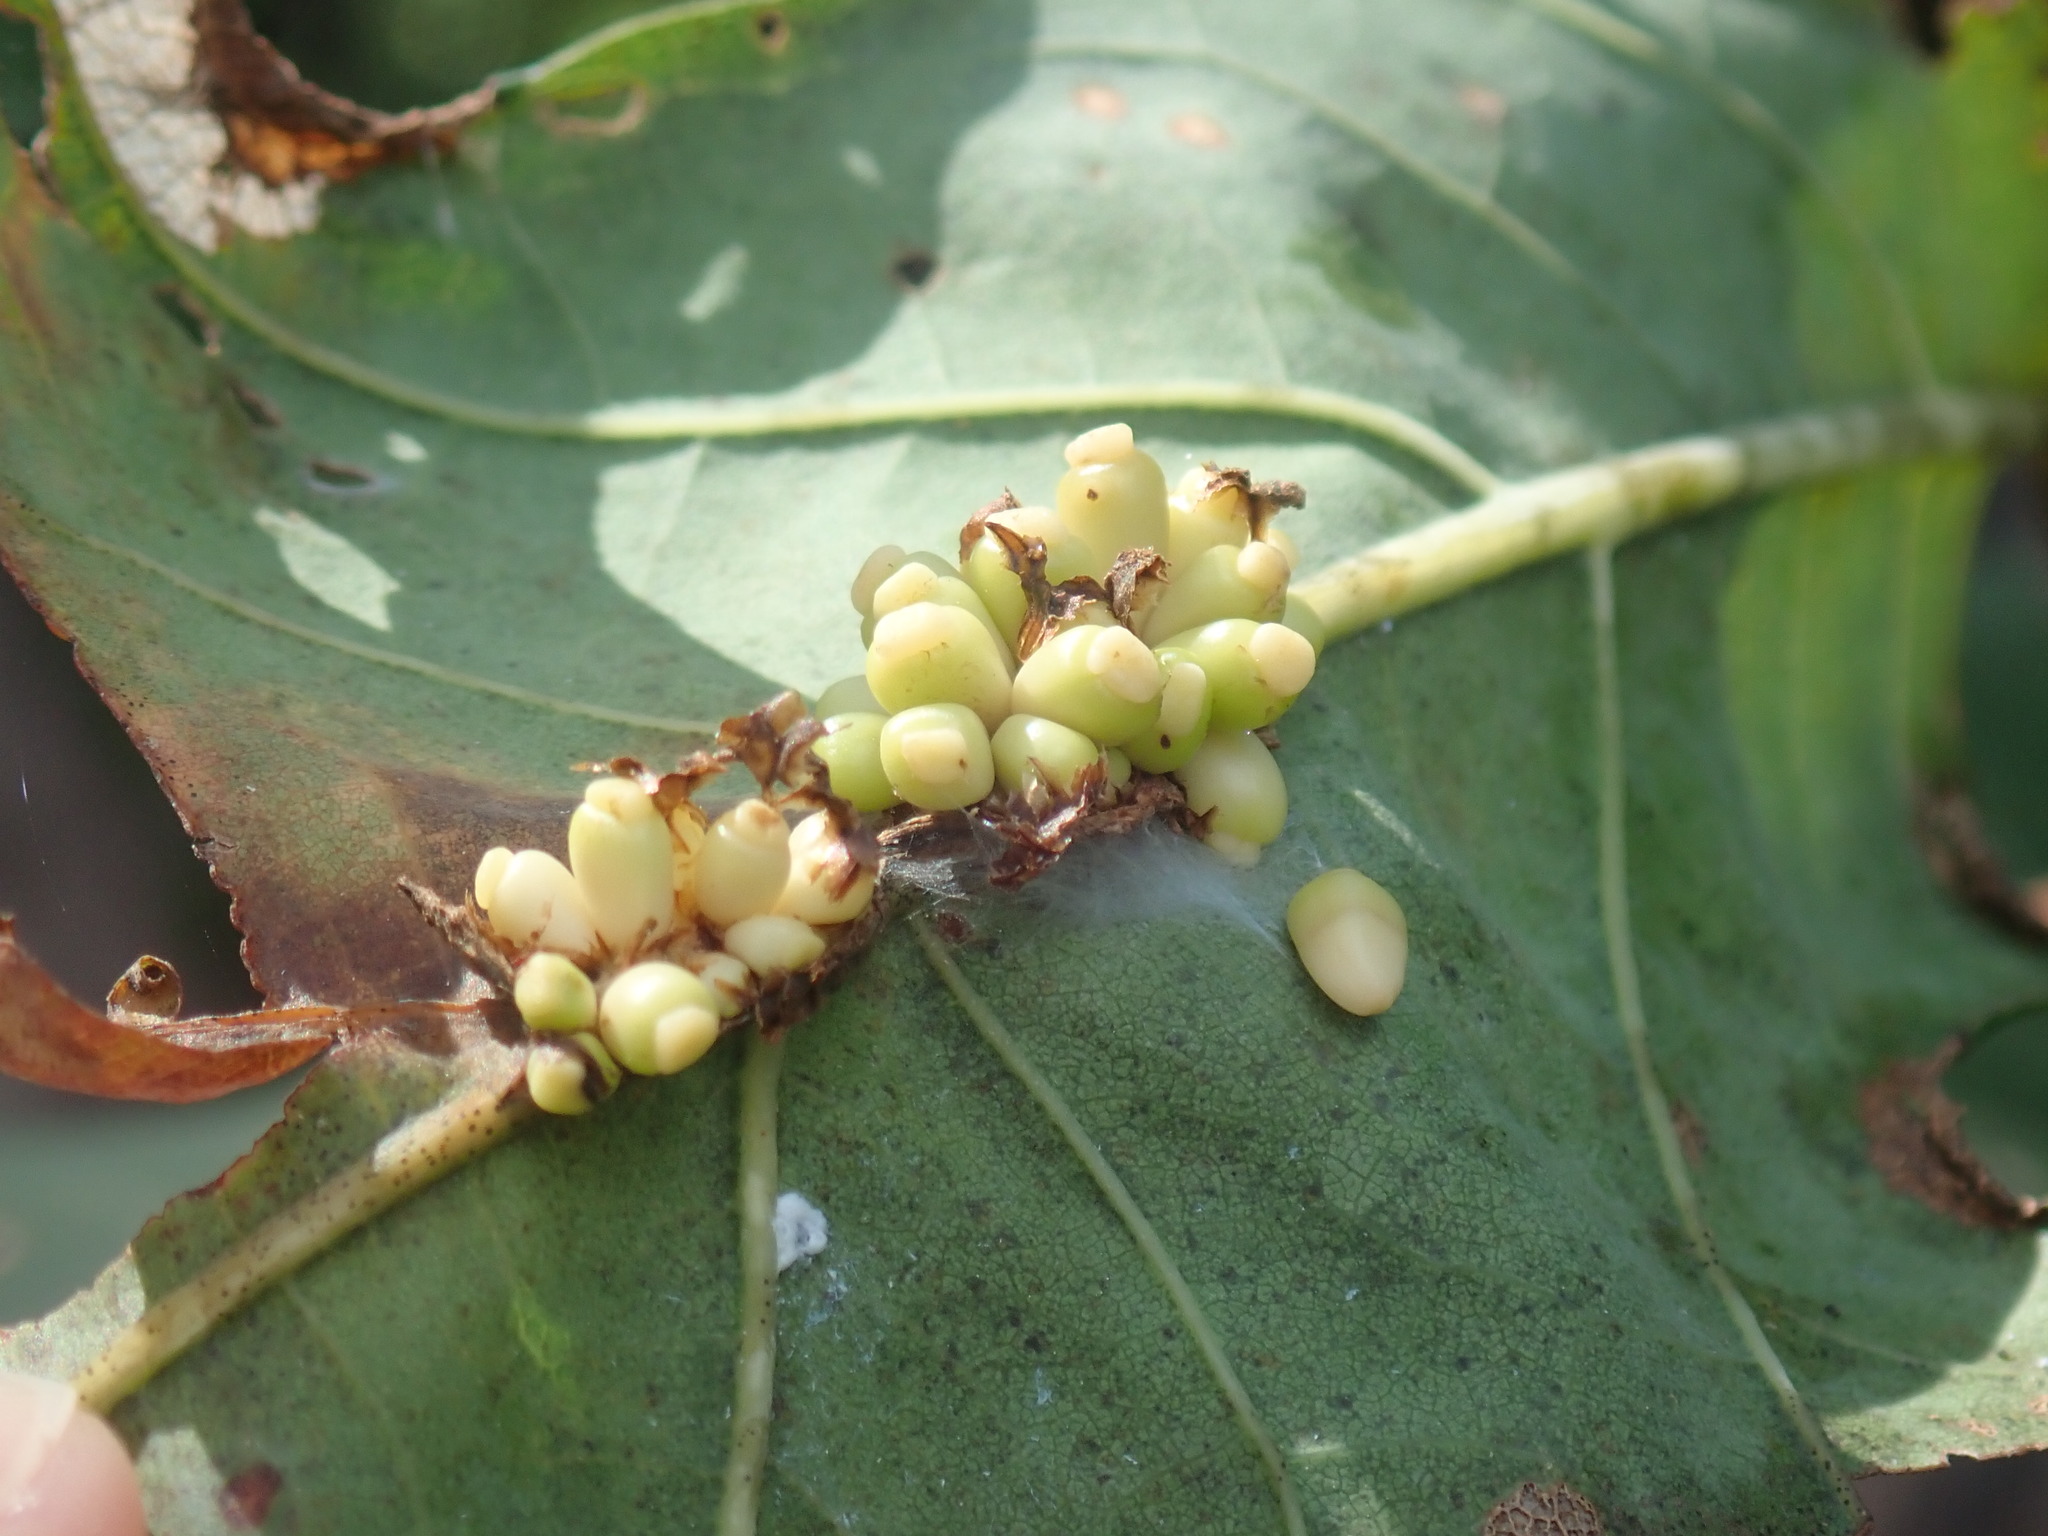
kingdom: Animalia
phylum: Arthropoda
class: Insecta
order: Hymenoptera
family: Cynipidae
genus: Kokkocynips
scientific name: Kokkocynips decidua
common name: Oak wheat gall
